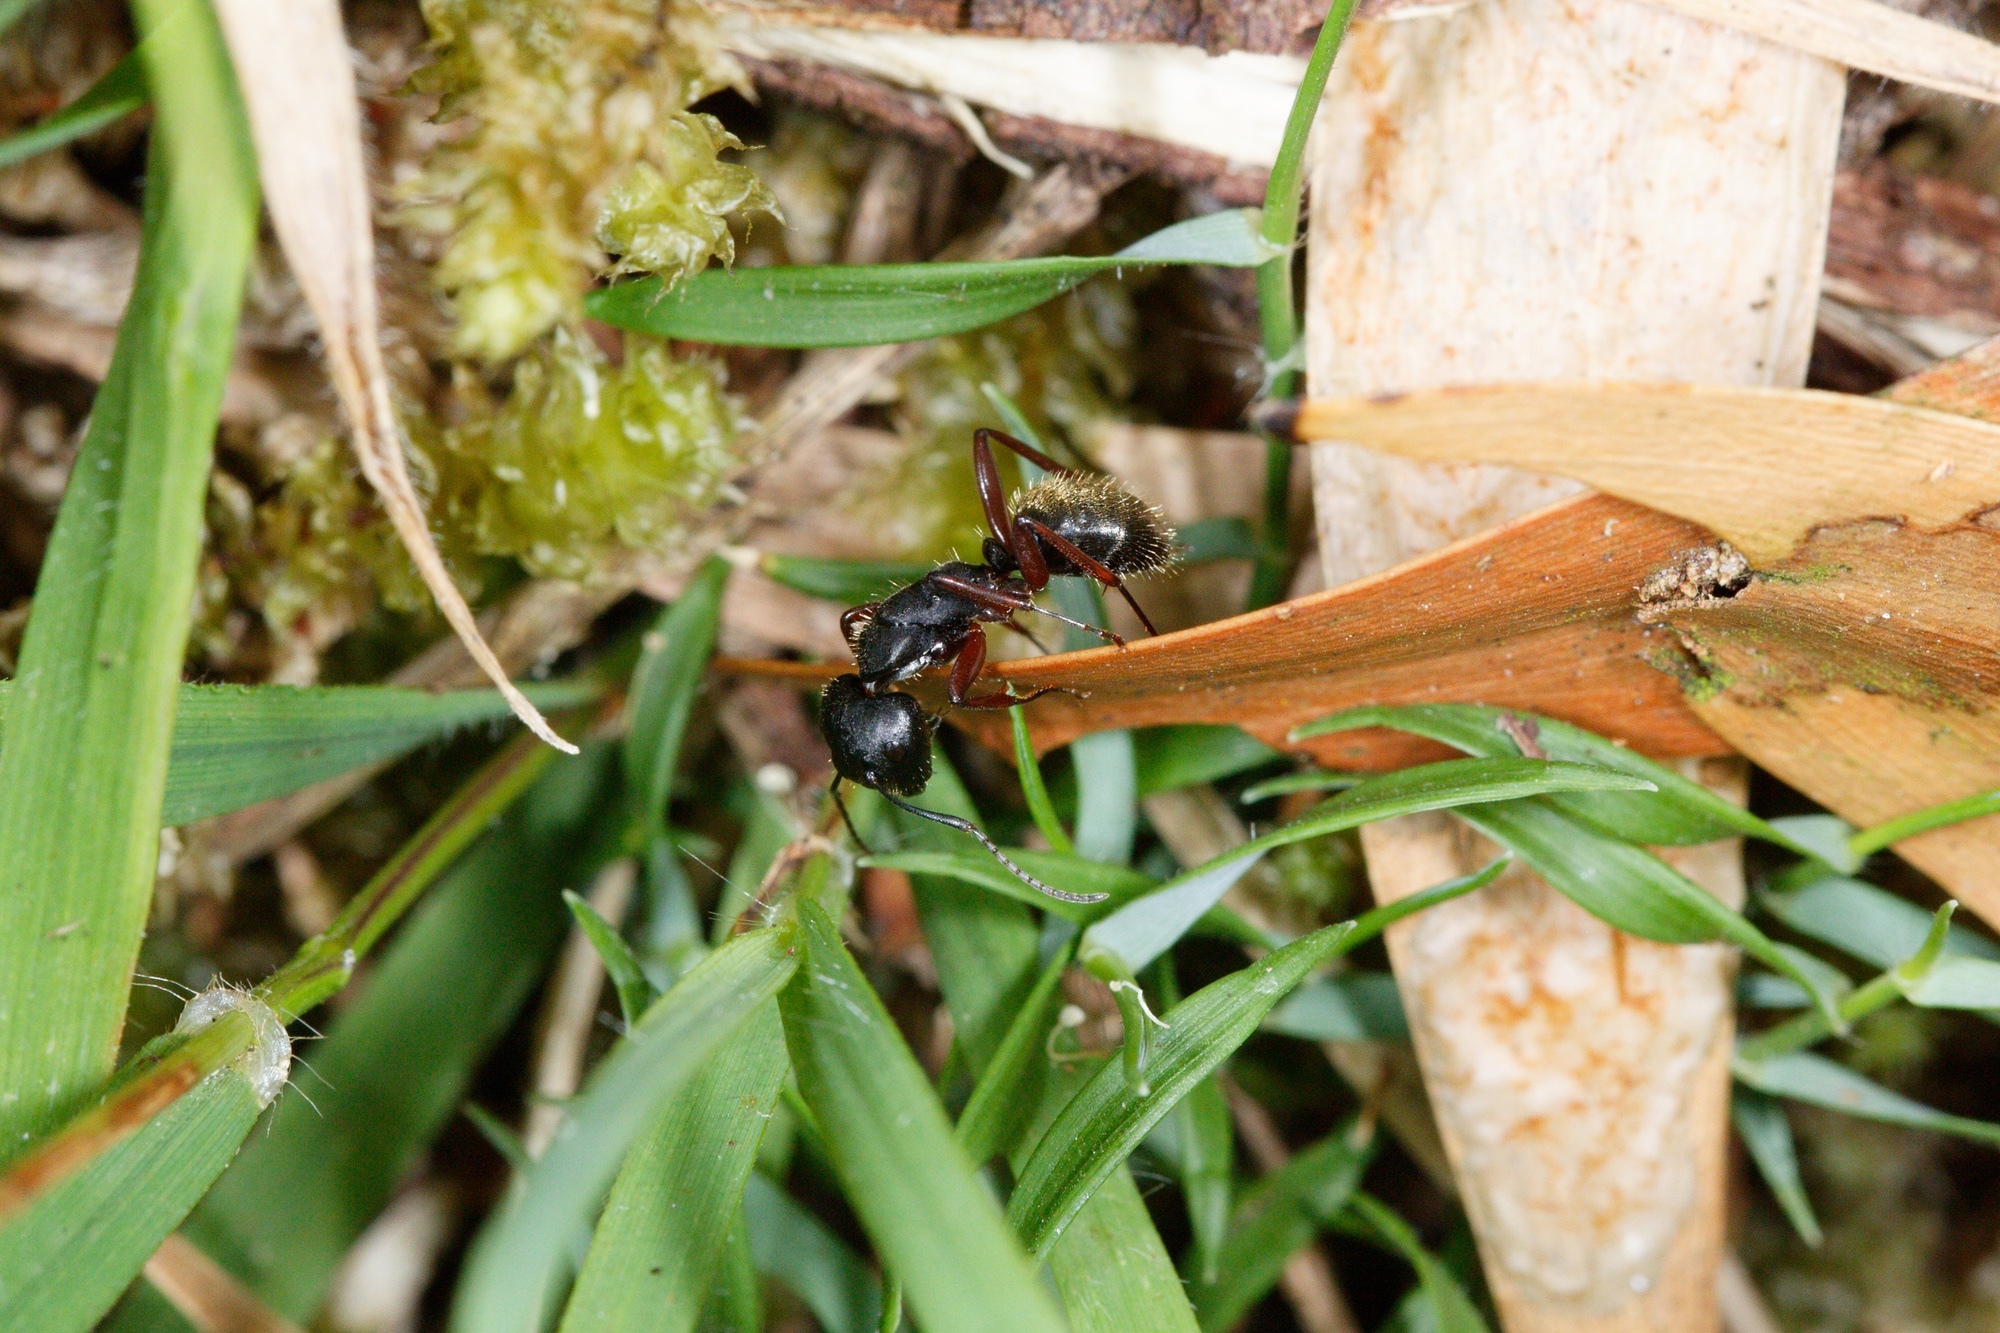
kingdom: Animalia
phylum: Arthropoda
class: Insecta
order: Hymenoptera
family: Formicidae
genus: Camponotus
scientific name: Camponotus oxleyi
